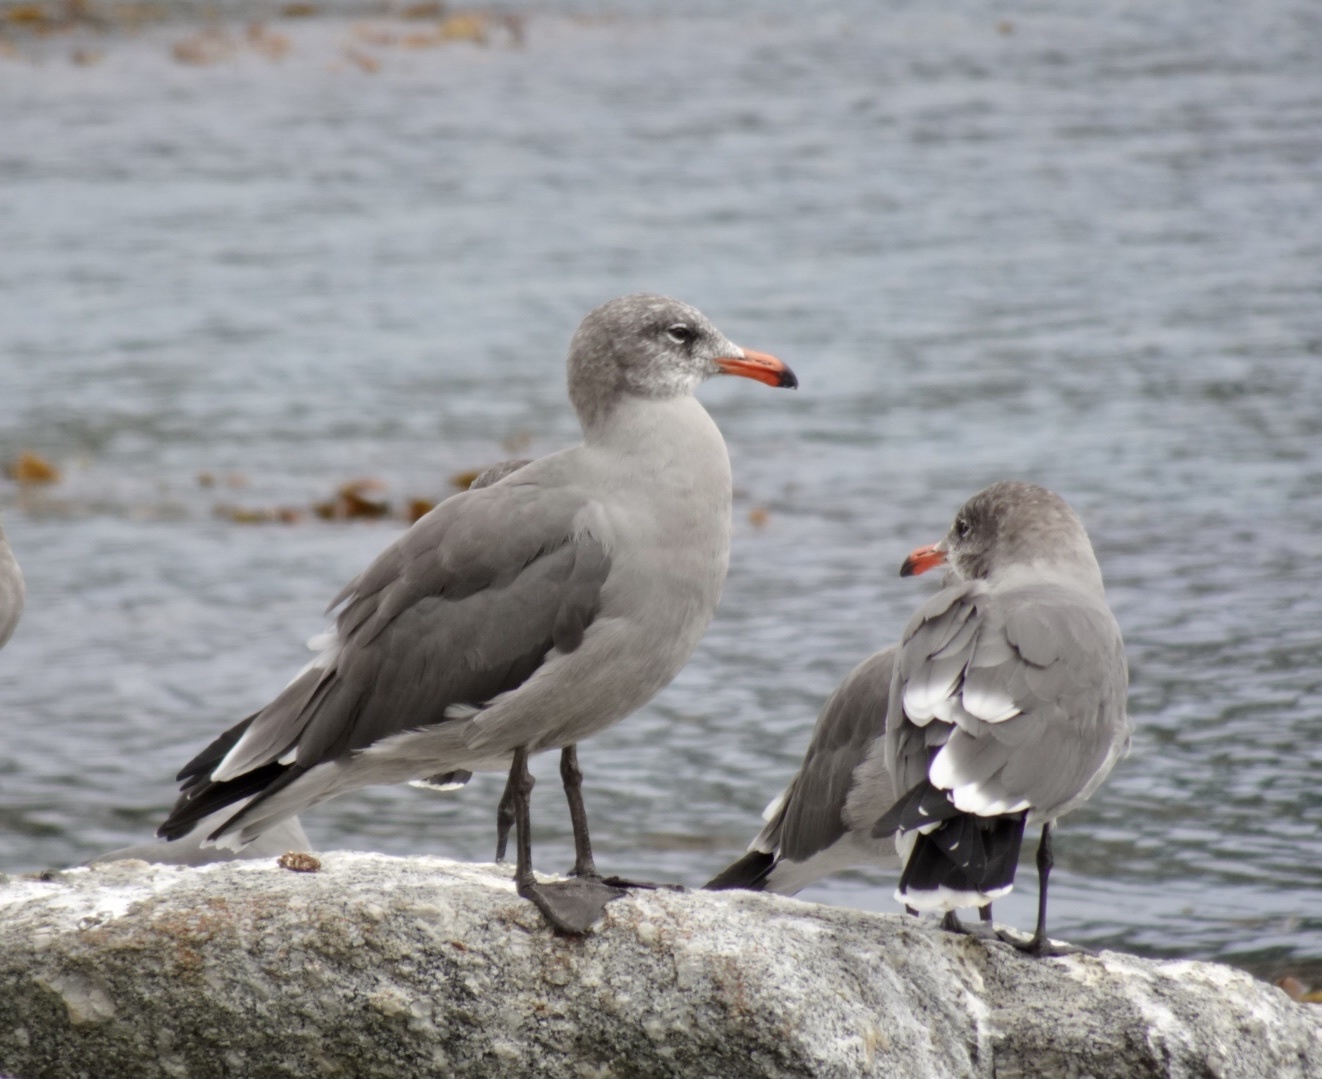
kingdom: Animalia
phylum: Chordata
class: Aves
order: Charadriiformes
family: Laridae
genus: Larus
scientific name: Larus heermanni
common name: Heermann's gull
